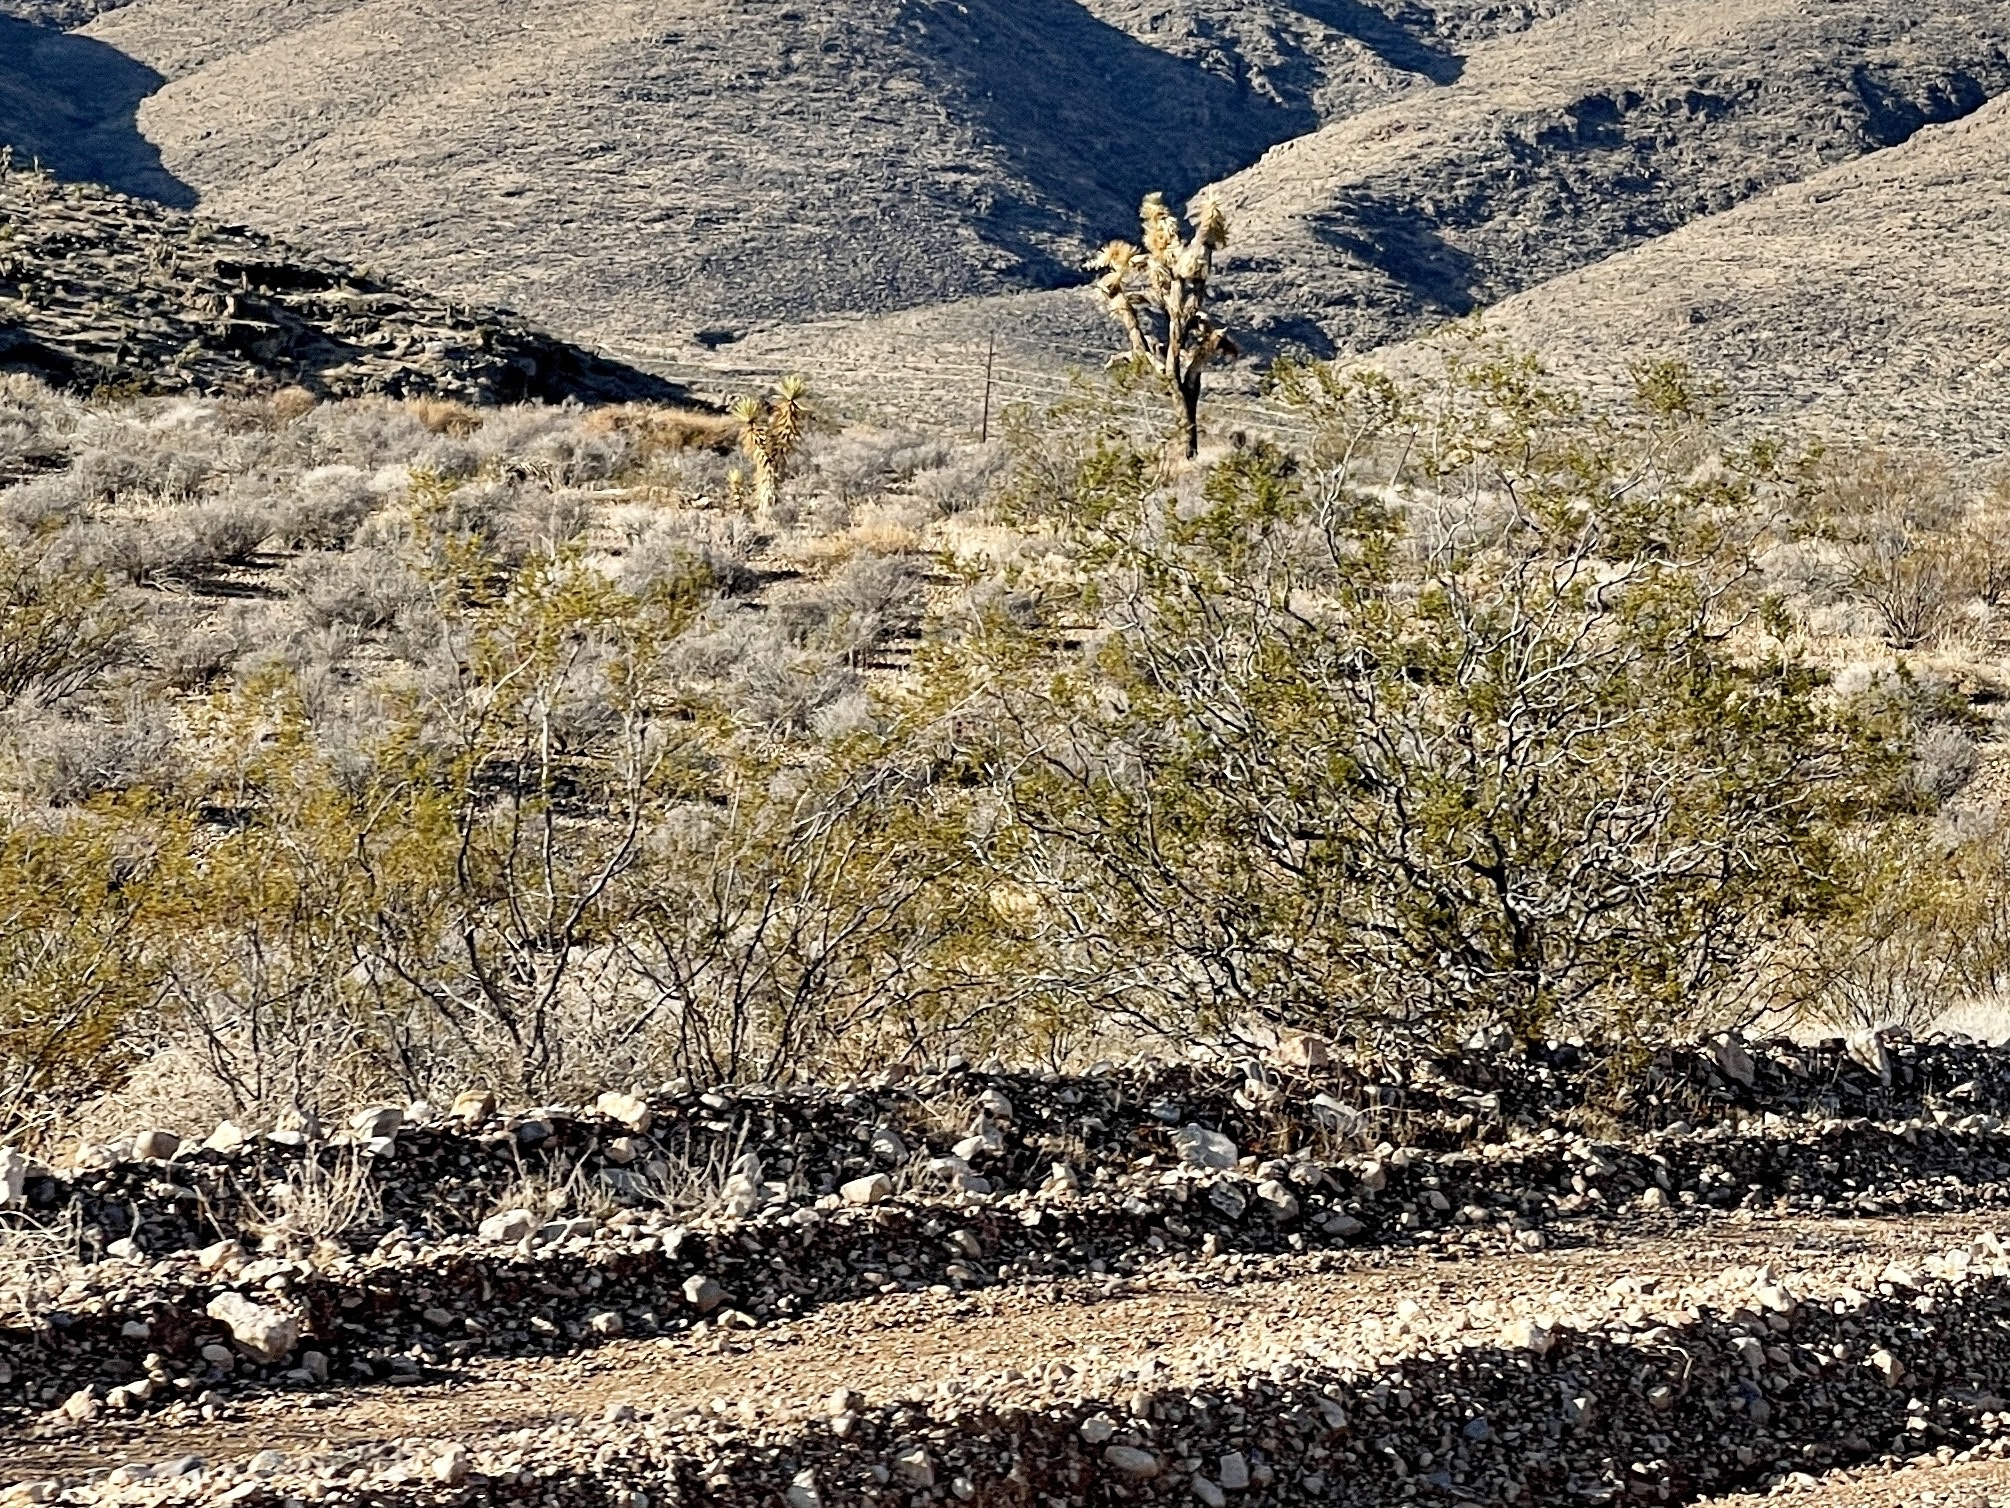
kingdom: Plantae
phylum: Tracheophyta
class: Magnoliopsida
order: Zygophyllales
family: Zygophyllaceae
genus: Larrea
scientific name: Larrea tridentata
